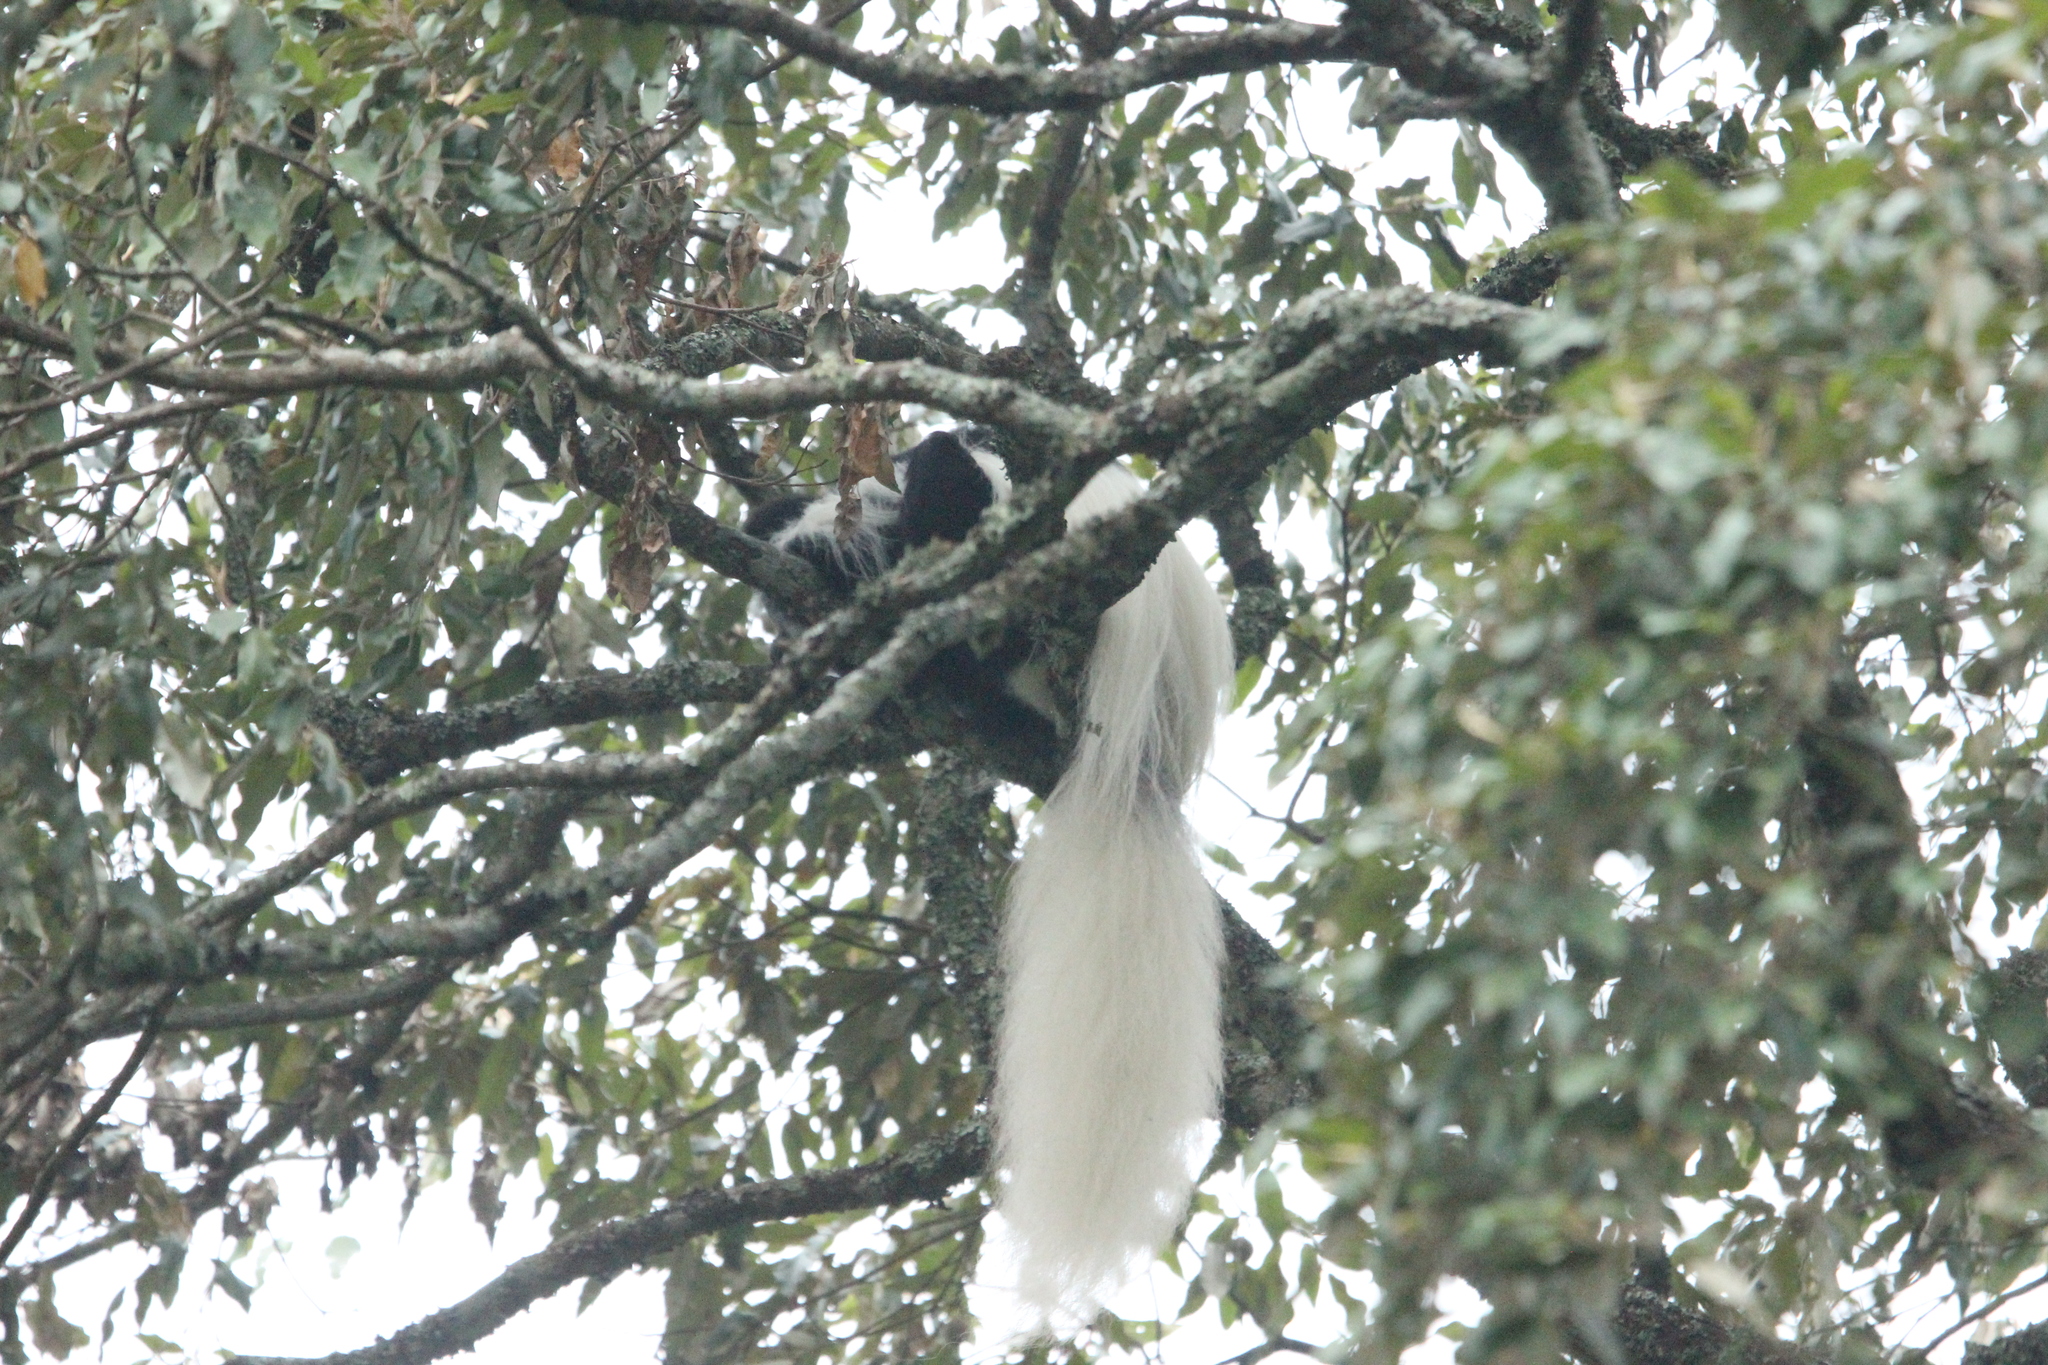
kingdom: Animalia
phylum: Chordata
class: Mammalia
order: Primates
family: Cercopithecidae
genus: Colobus
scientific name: Colobus caudatus
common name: Mount kilimanjaro guereza
